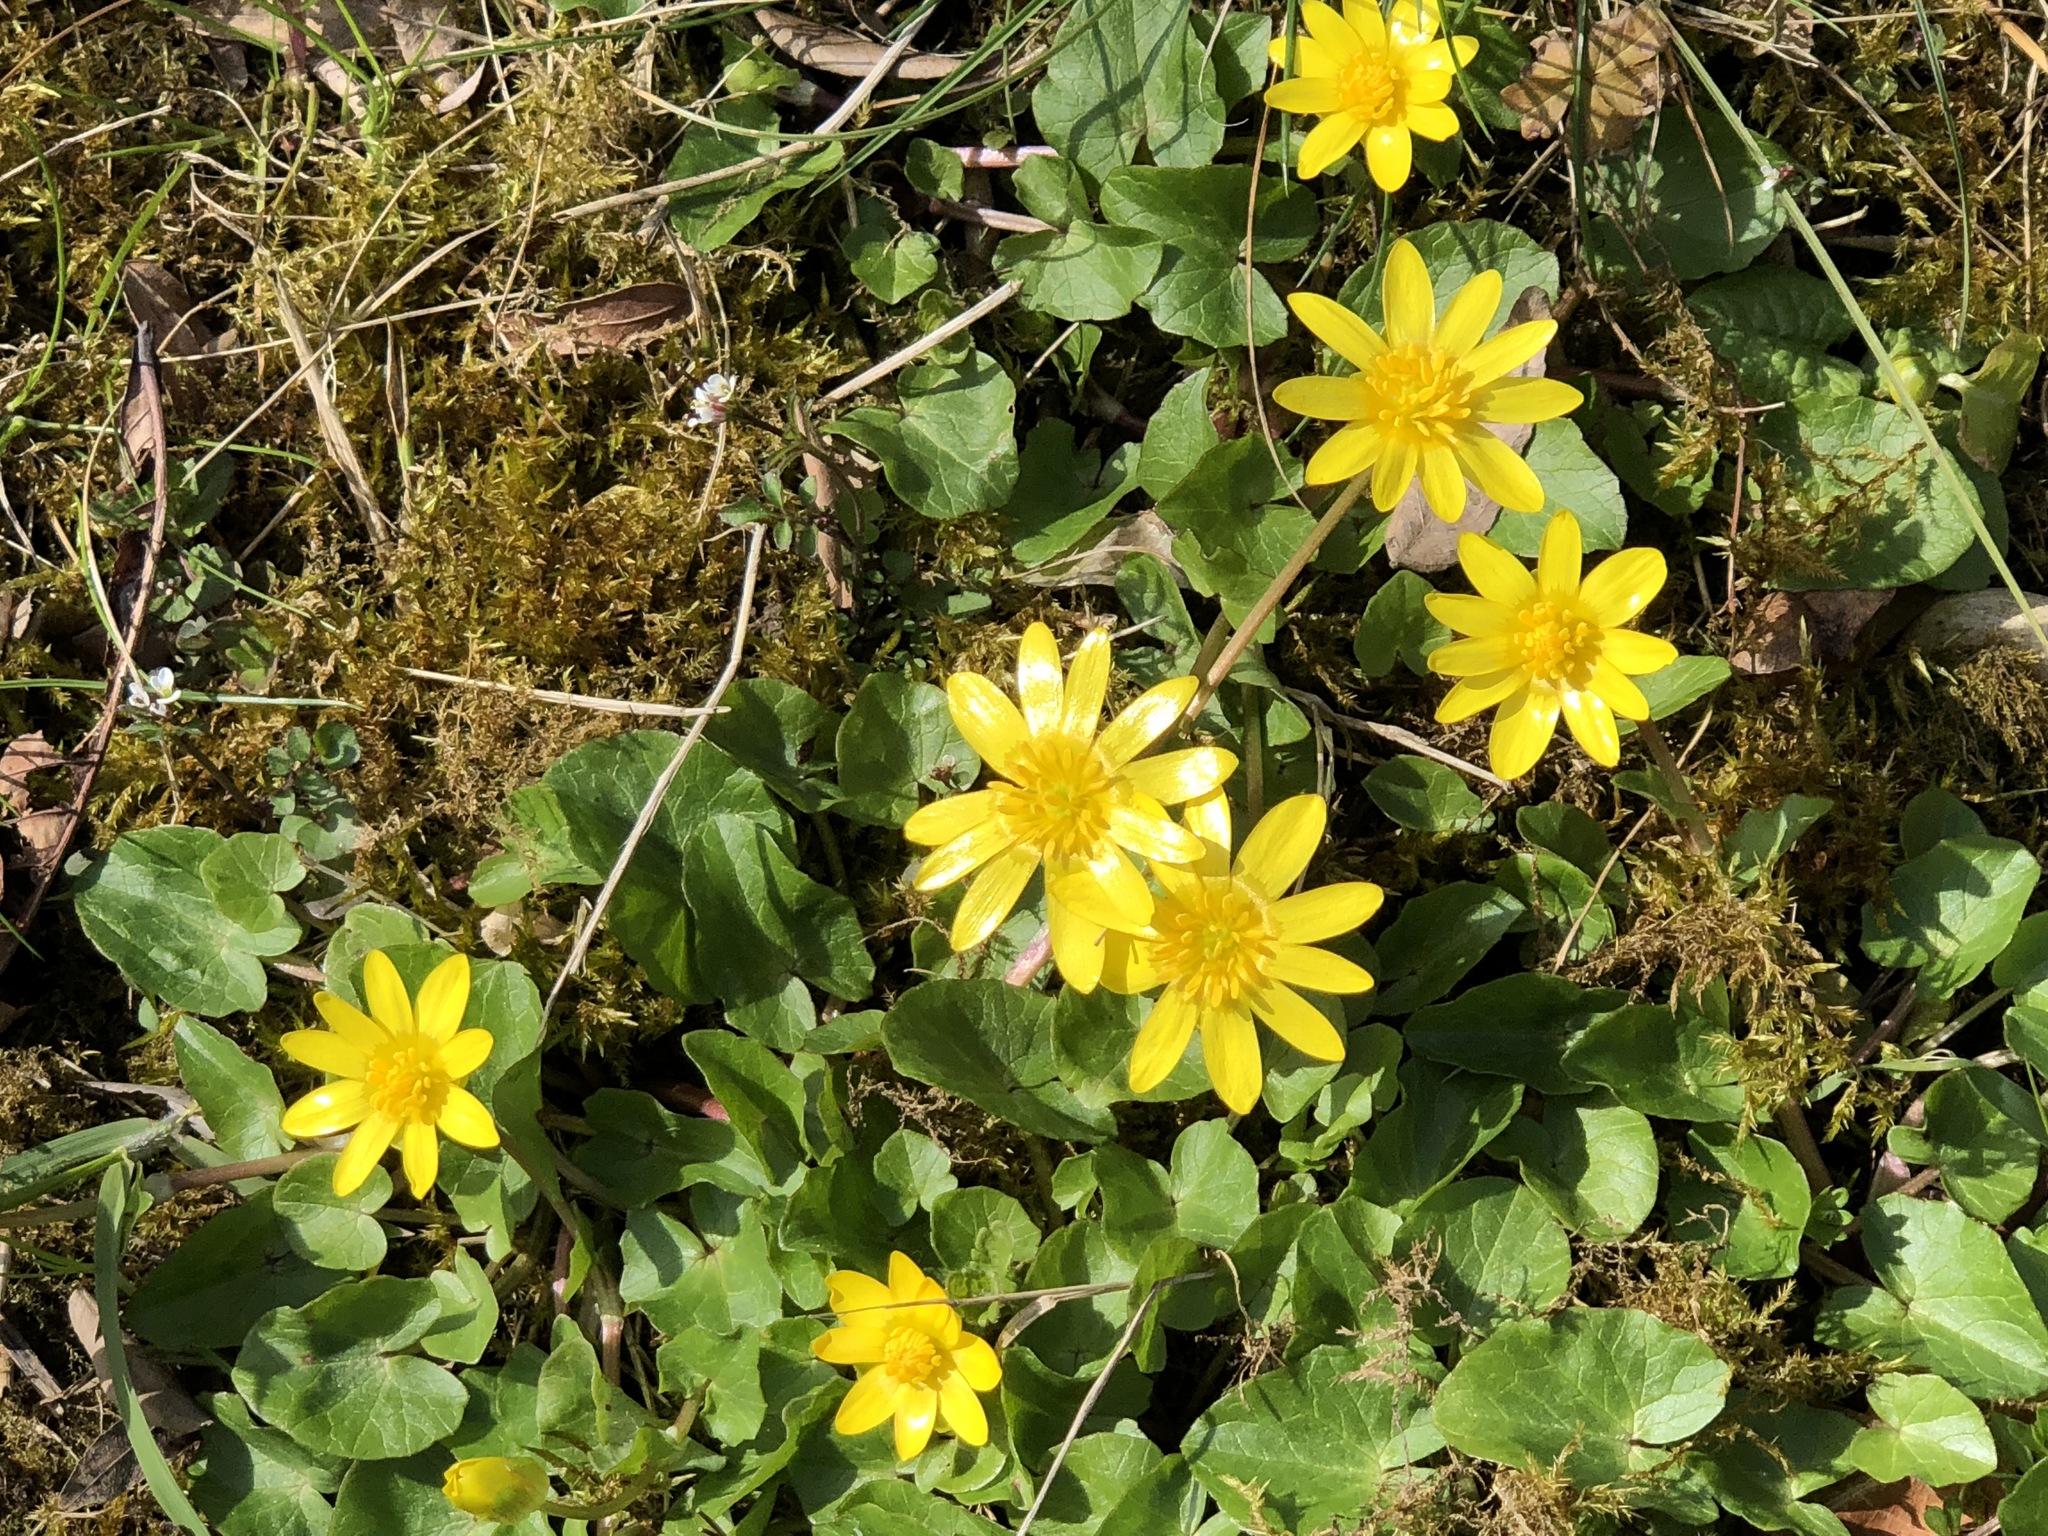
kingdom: Plantae
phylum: Tracheophyta
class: Magnoliopsida
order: Ranunculales
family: Ranunculaceae
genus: Ficaria
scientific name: Ficaria verna
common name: Lesser celandine
